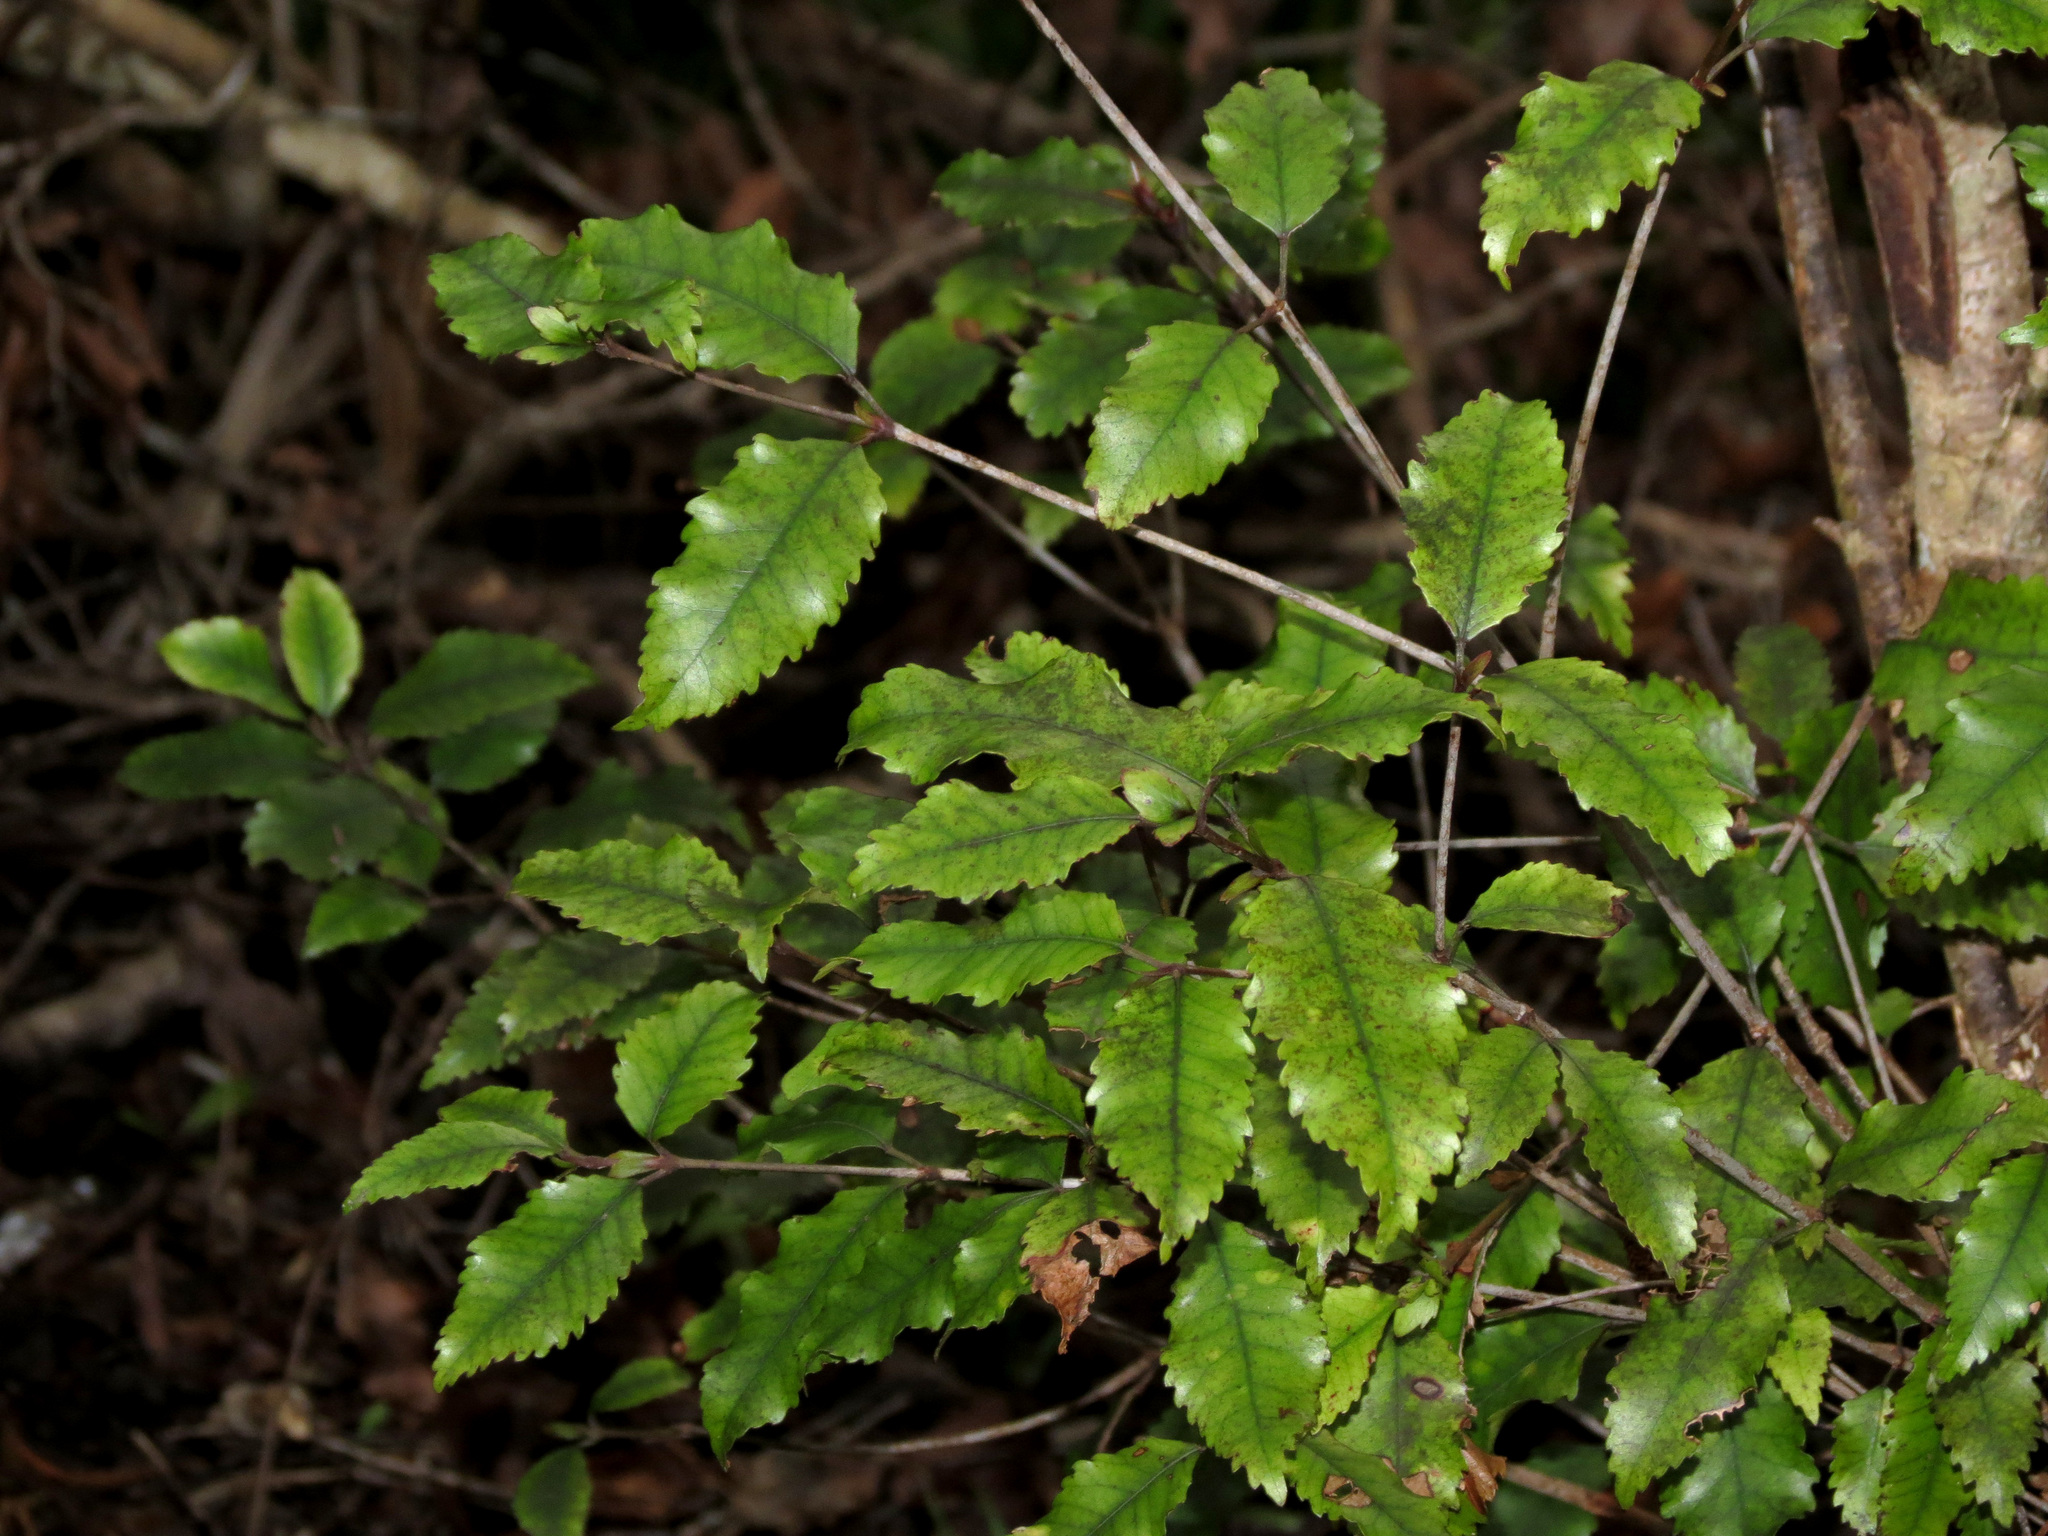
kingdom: Plantae
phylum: Tracheophyta
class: Magnoliopsida
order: Oxalidales
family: Cunoniaceae
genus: Pterophylla
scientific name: Pterophylla racemosa
